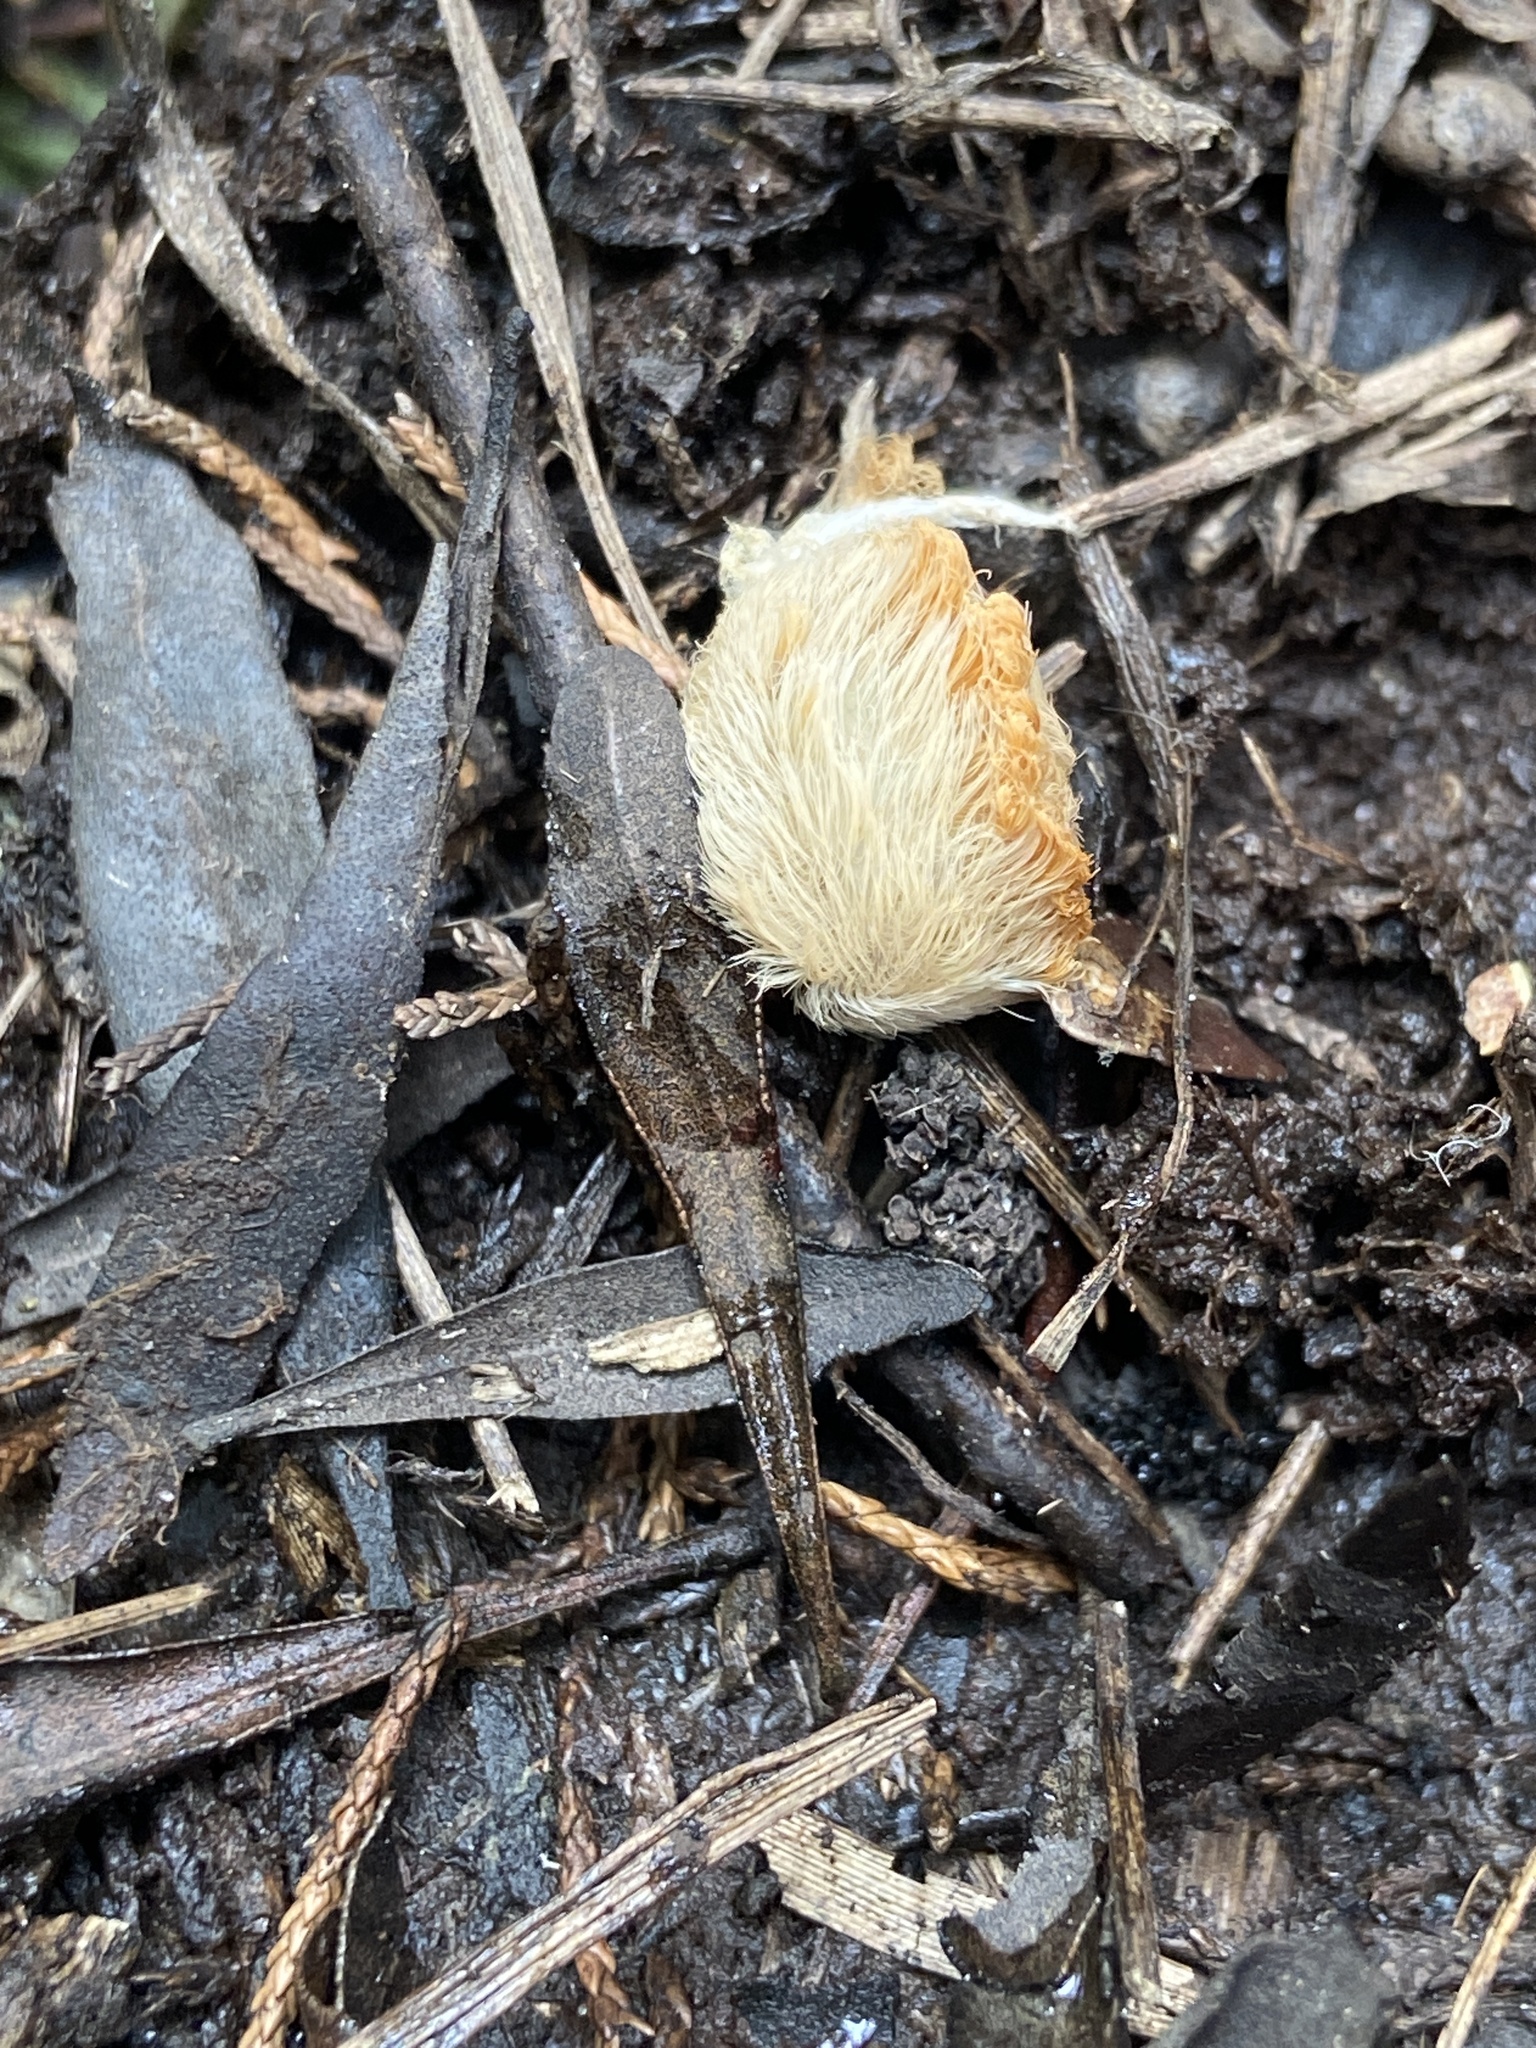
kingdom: Animalia
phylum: Arthropoda
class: Insecta
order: Lepidoptera
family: Megalopygidae
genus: Megalopyge
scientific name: Megalopyge opercularis
